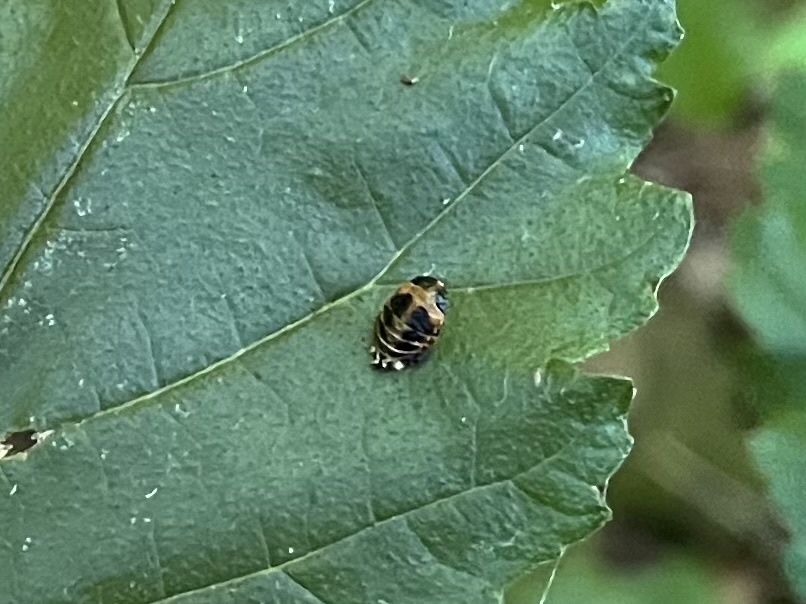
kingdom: Animalia
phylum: Arthropoda
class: Insecta
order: Coleoptera
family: Coccinellidae
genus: Harmonia
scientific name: Harmonia axyridis
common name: Harlequin ladybird
